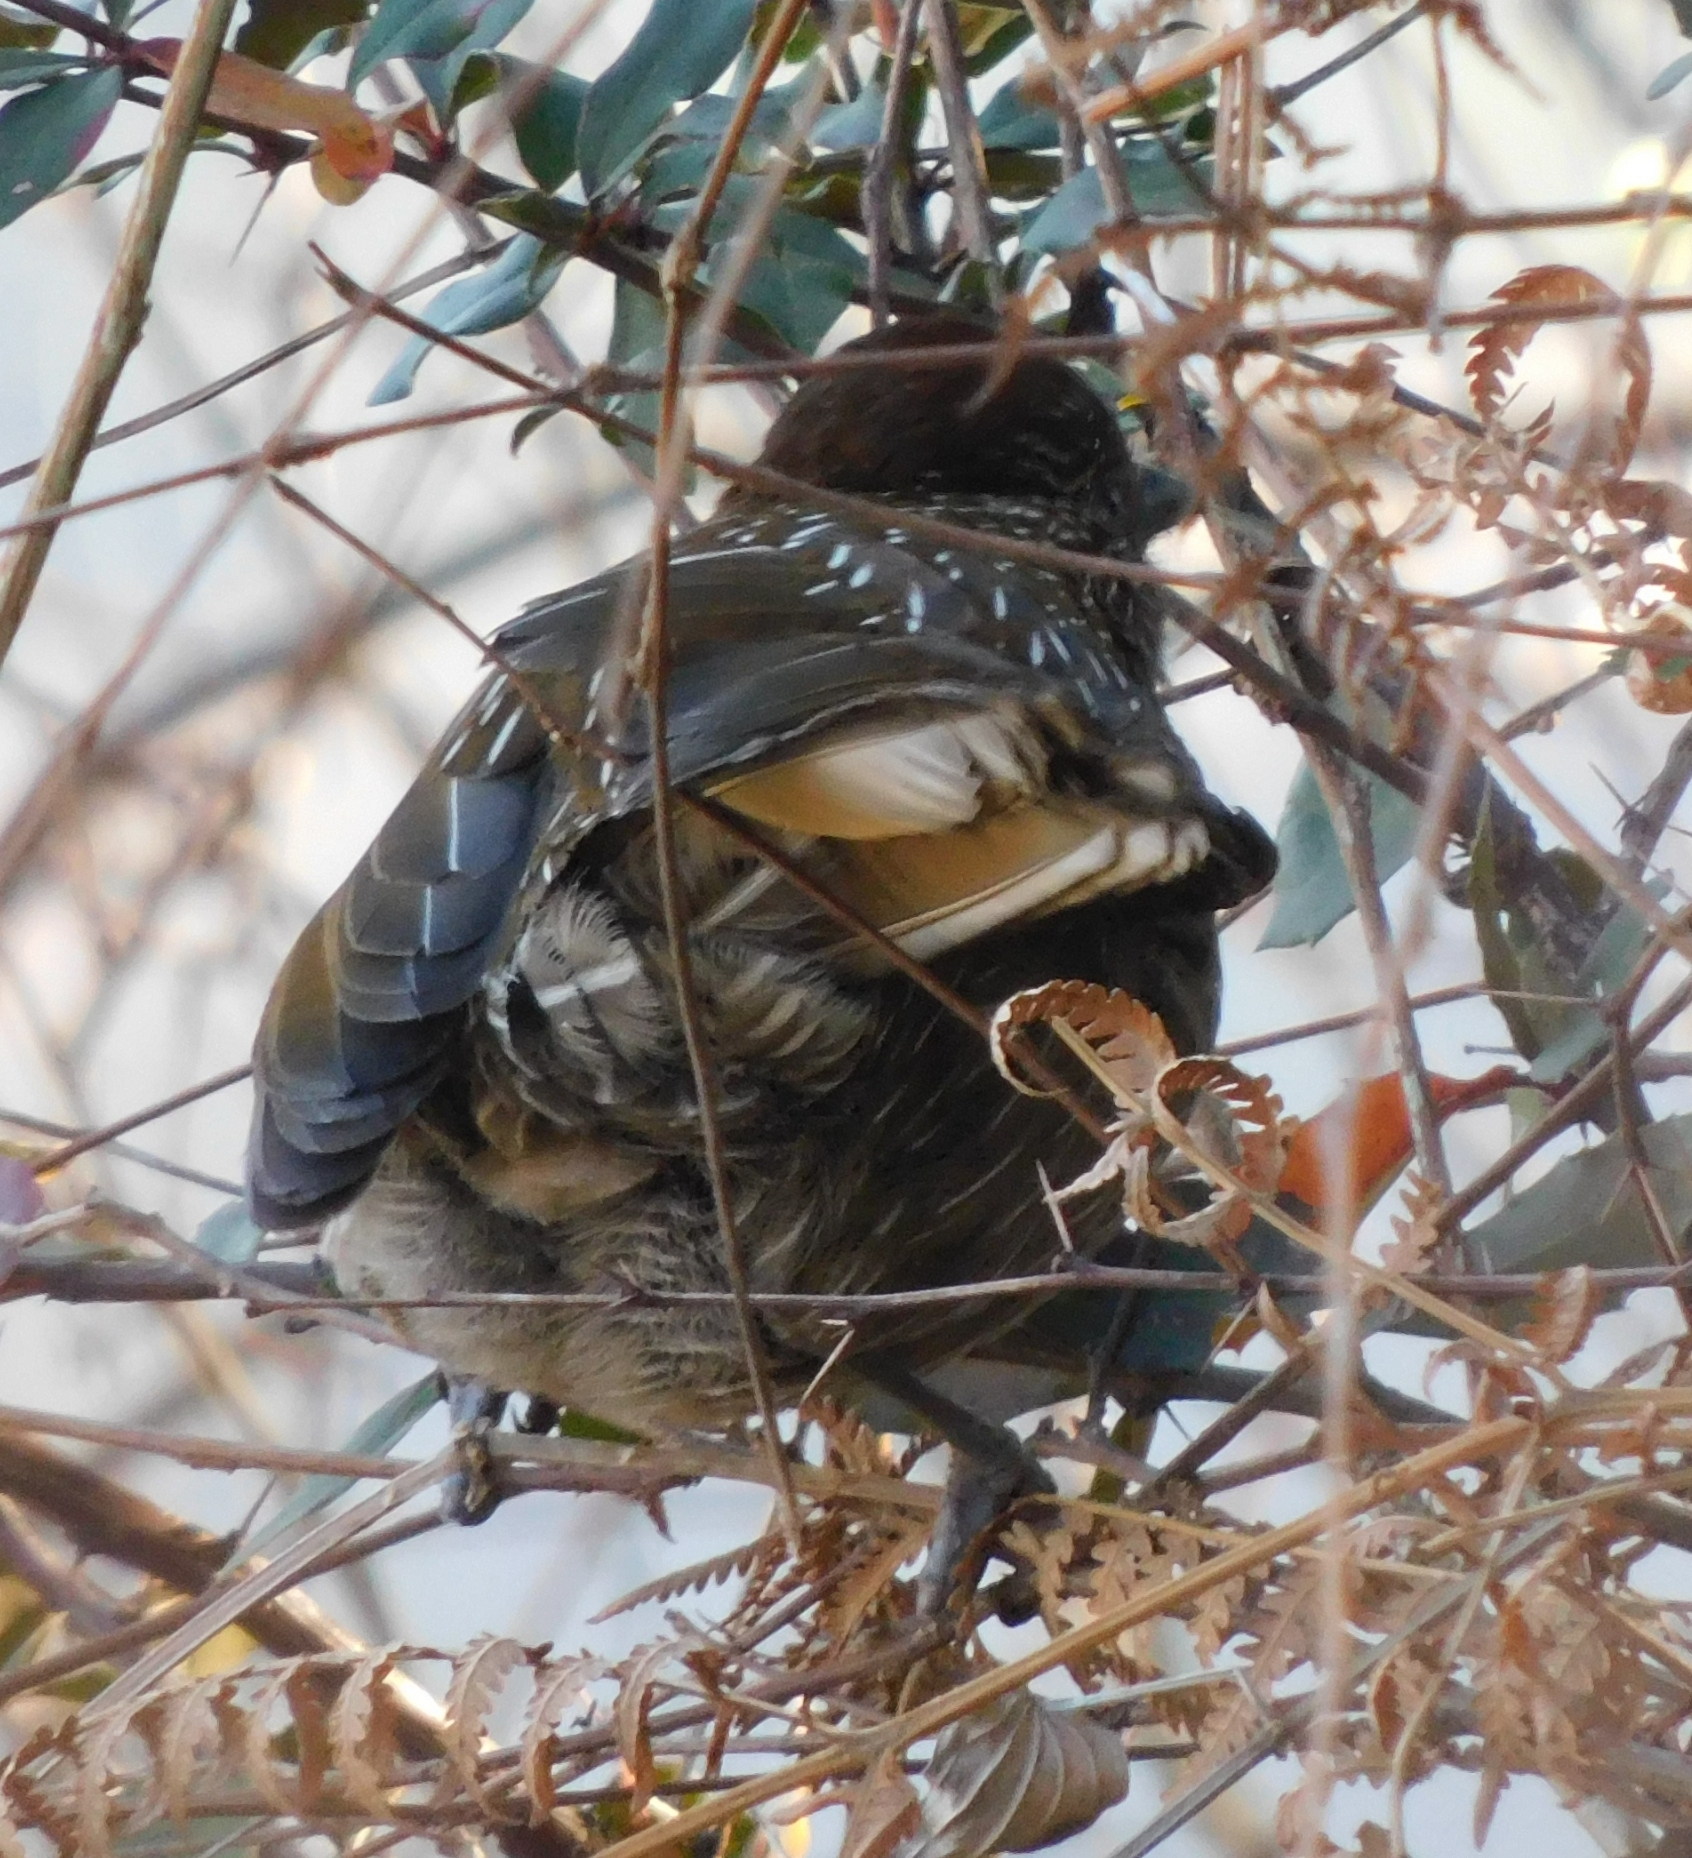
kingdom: Animalia
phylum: Chordata
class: Aves
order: Passeriformes
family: Leiothrichidae
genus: Garrulax
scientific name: Garrulax striatus
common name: Striated laughingthrush
